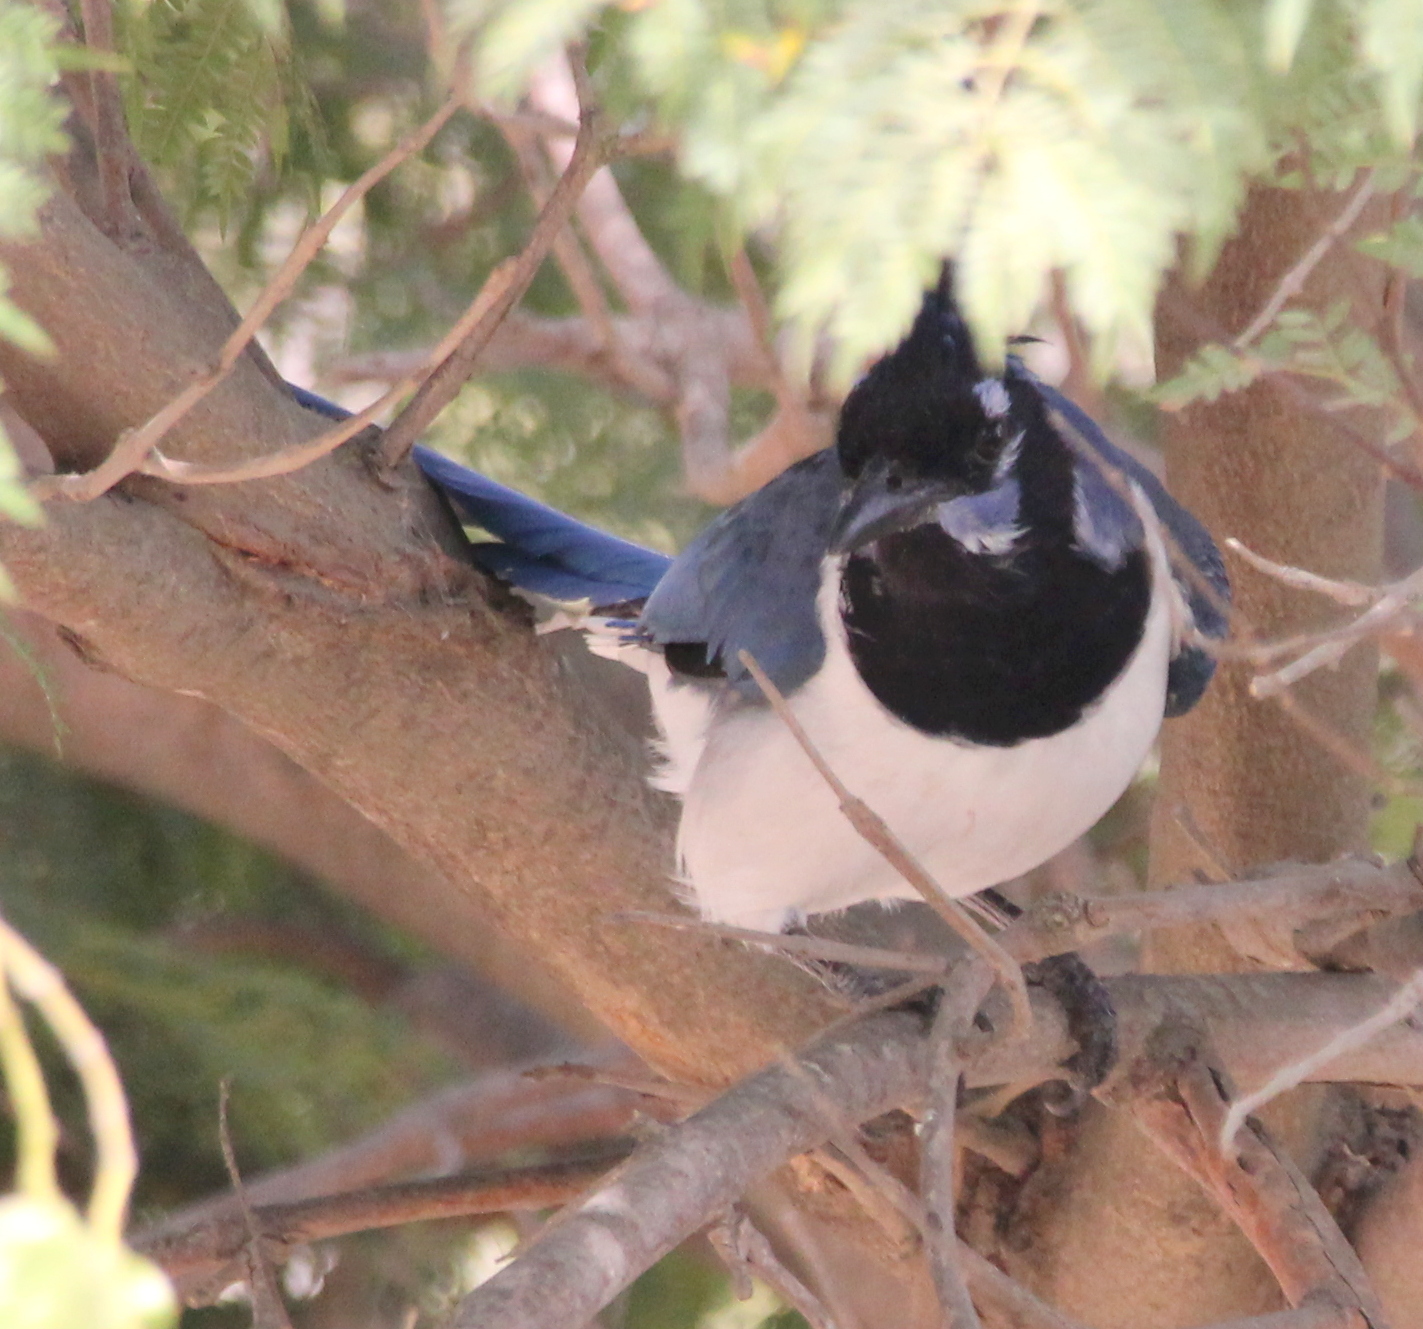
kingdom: Animalia
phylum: Chordata
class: Aves
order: Passeriformes
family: Corvidae
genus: Calocitta
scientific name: Calocitta colliei
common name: Black-throated magpie-jay
